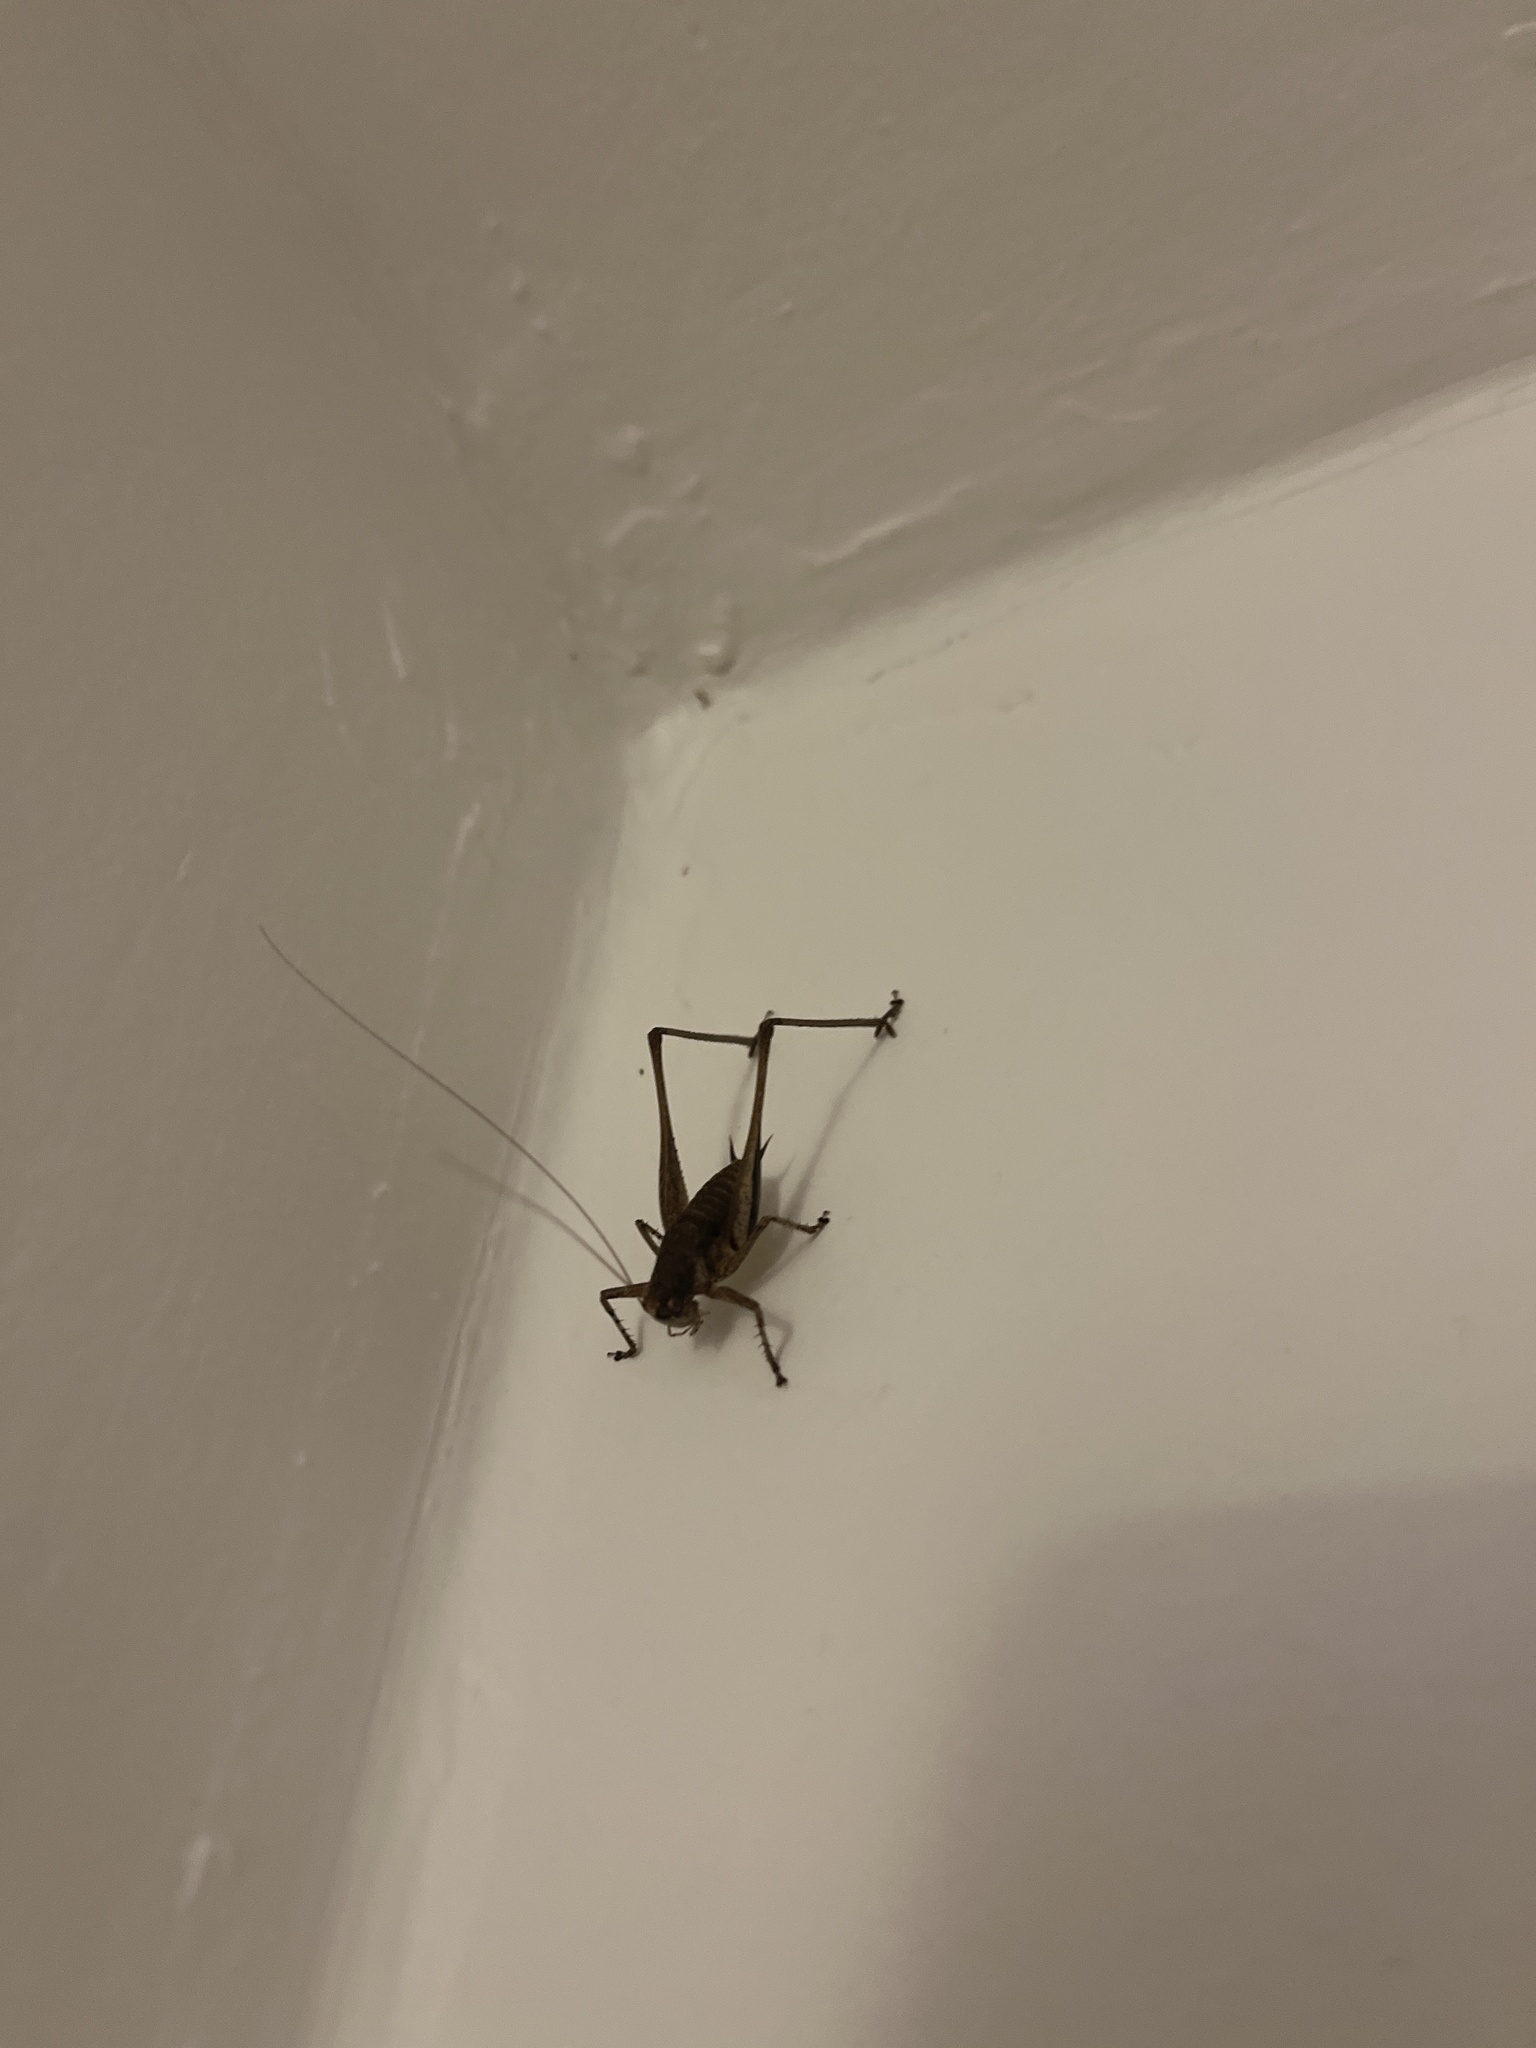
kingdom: Animalia
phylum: Arthropoda
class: Insecta
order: Orthoptera
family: Tettigoniidae
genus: Rhacocleis
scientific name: Rhacocleis poneli
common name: Ponel's bush-cricket
